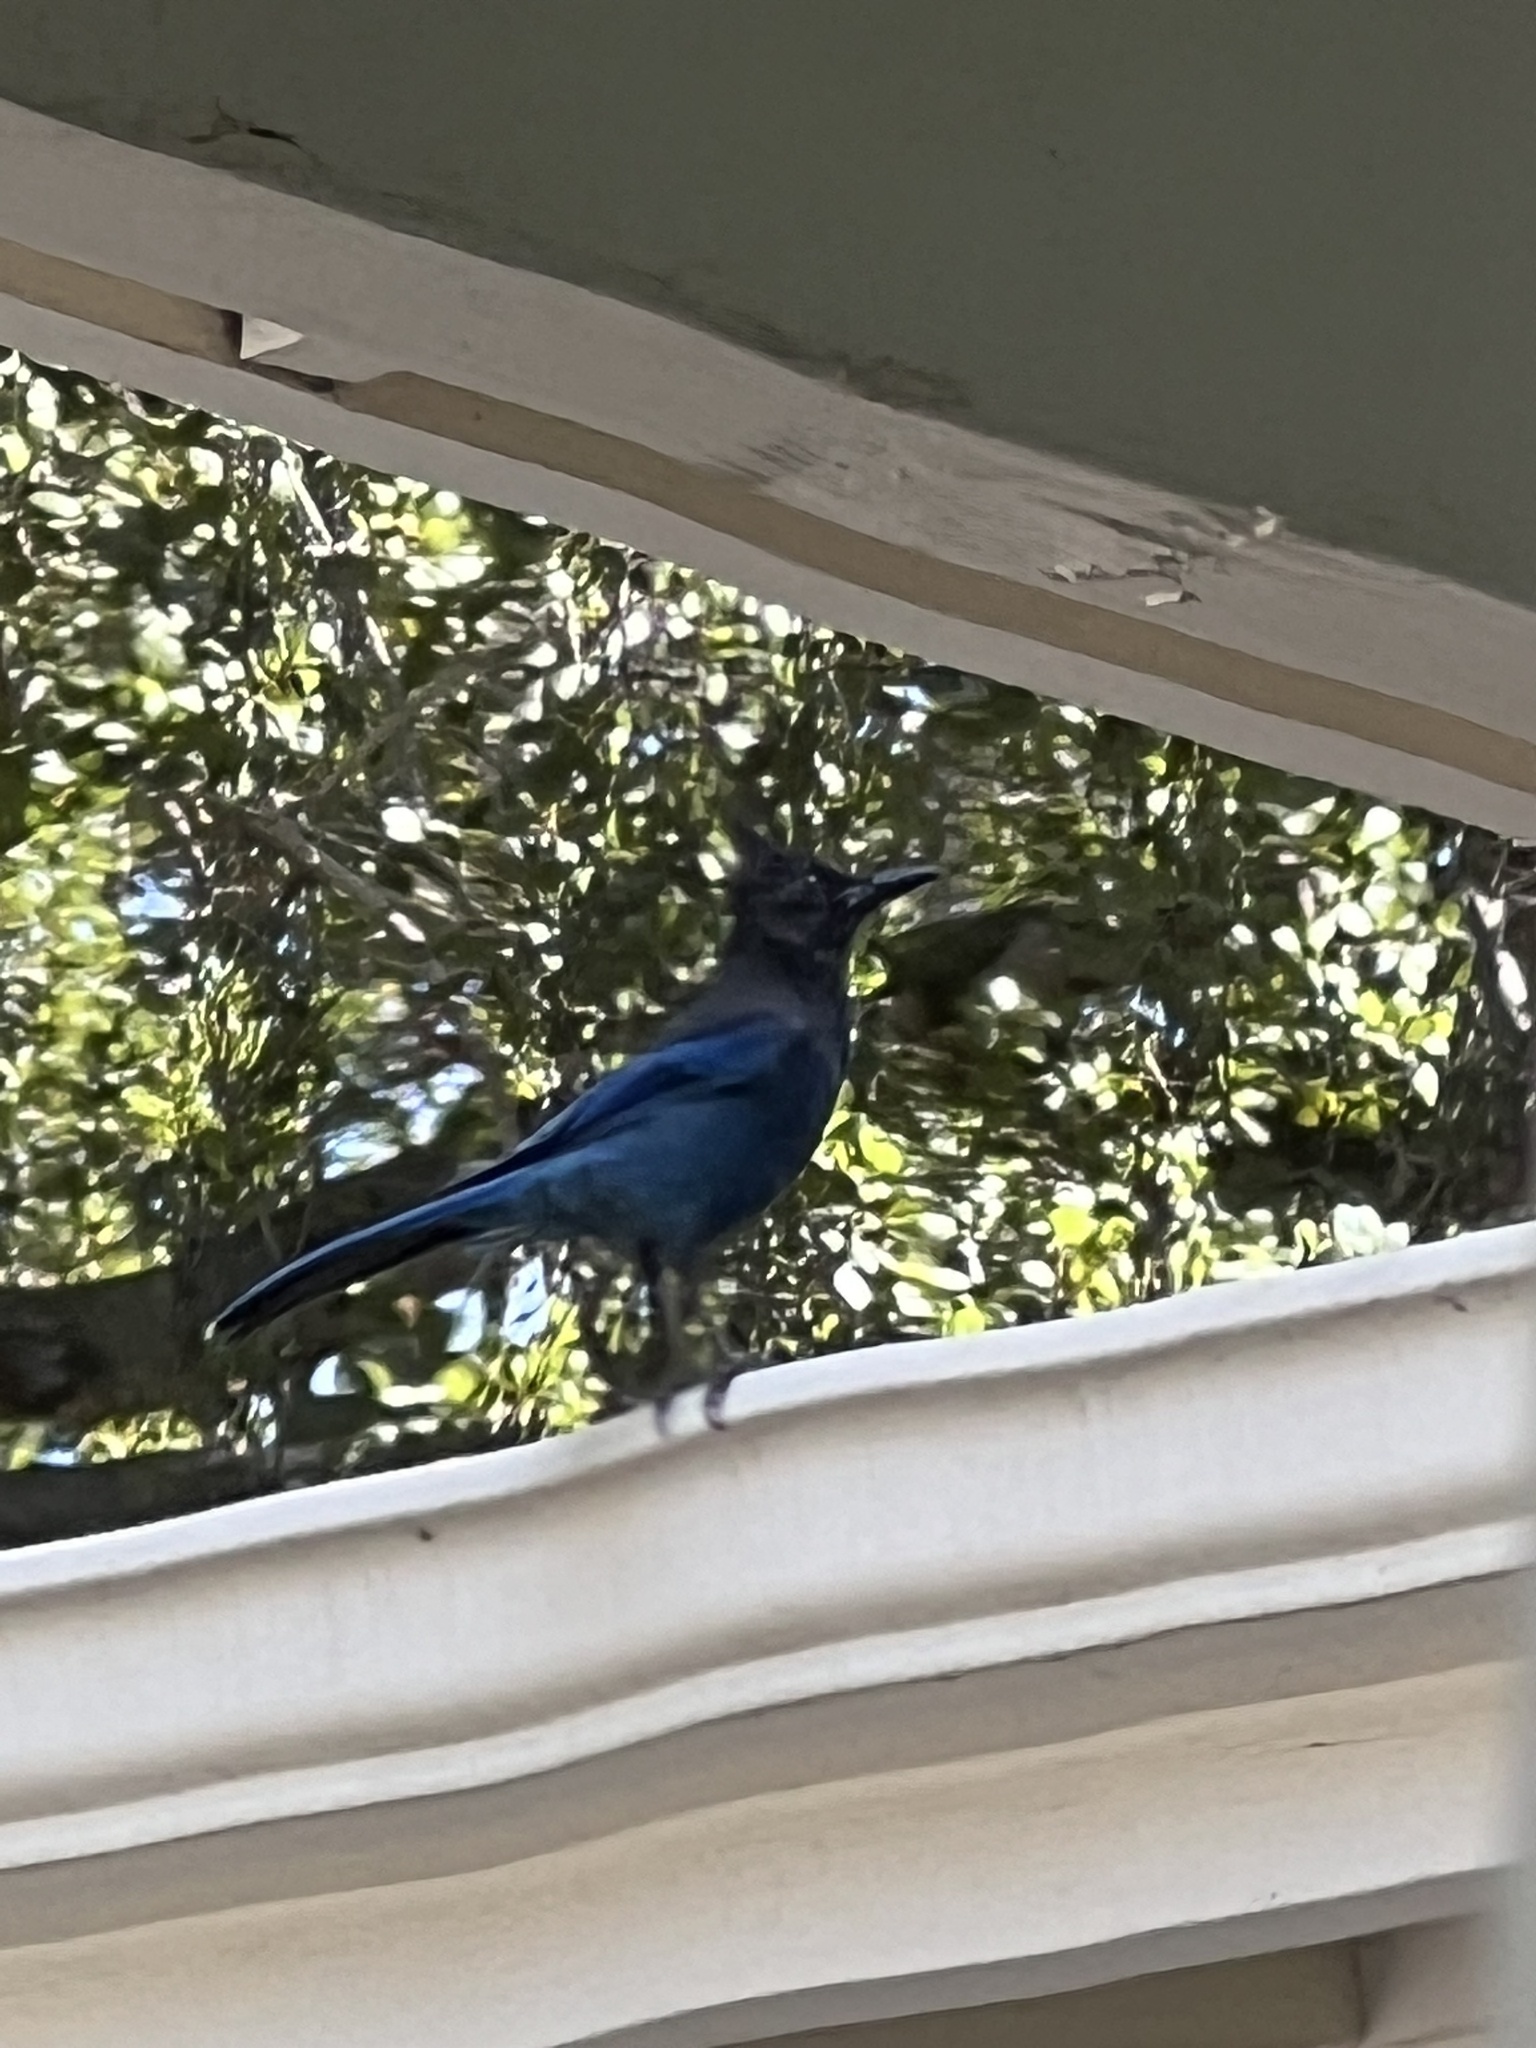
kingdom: Animalia
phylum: Chordata
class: Aves
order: Passeriformes
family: Corvidae
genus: Cyanocitta
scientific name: Cyanocitta stelleri
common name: Steller's jay
